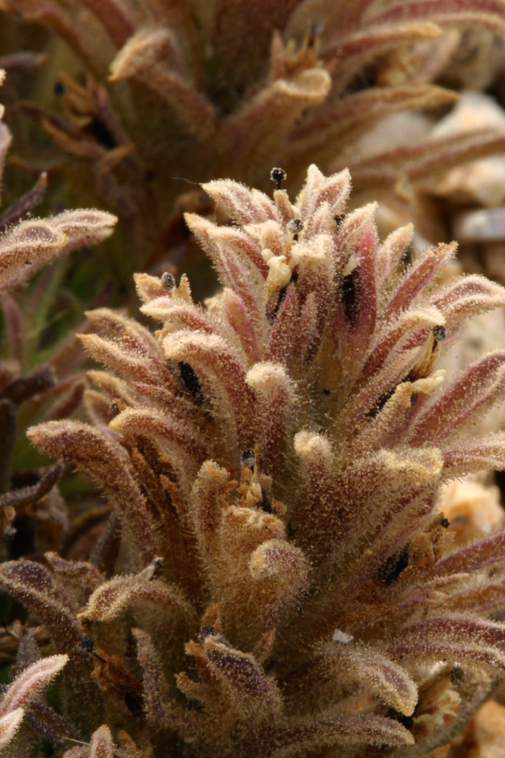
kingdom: Plantae
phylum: Tracheophyta
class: Magnoliopsida
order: Lamiales
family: Orobanchaceae
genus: Castilleja
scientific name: Castilleja nana
